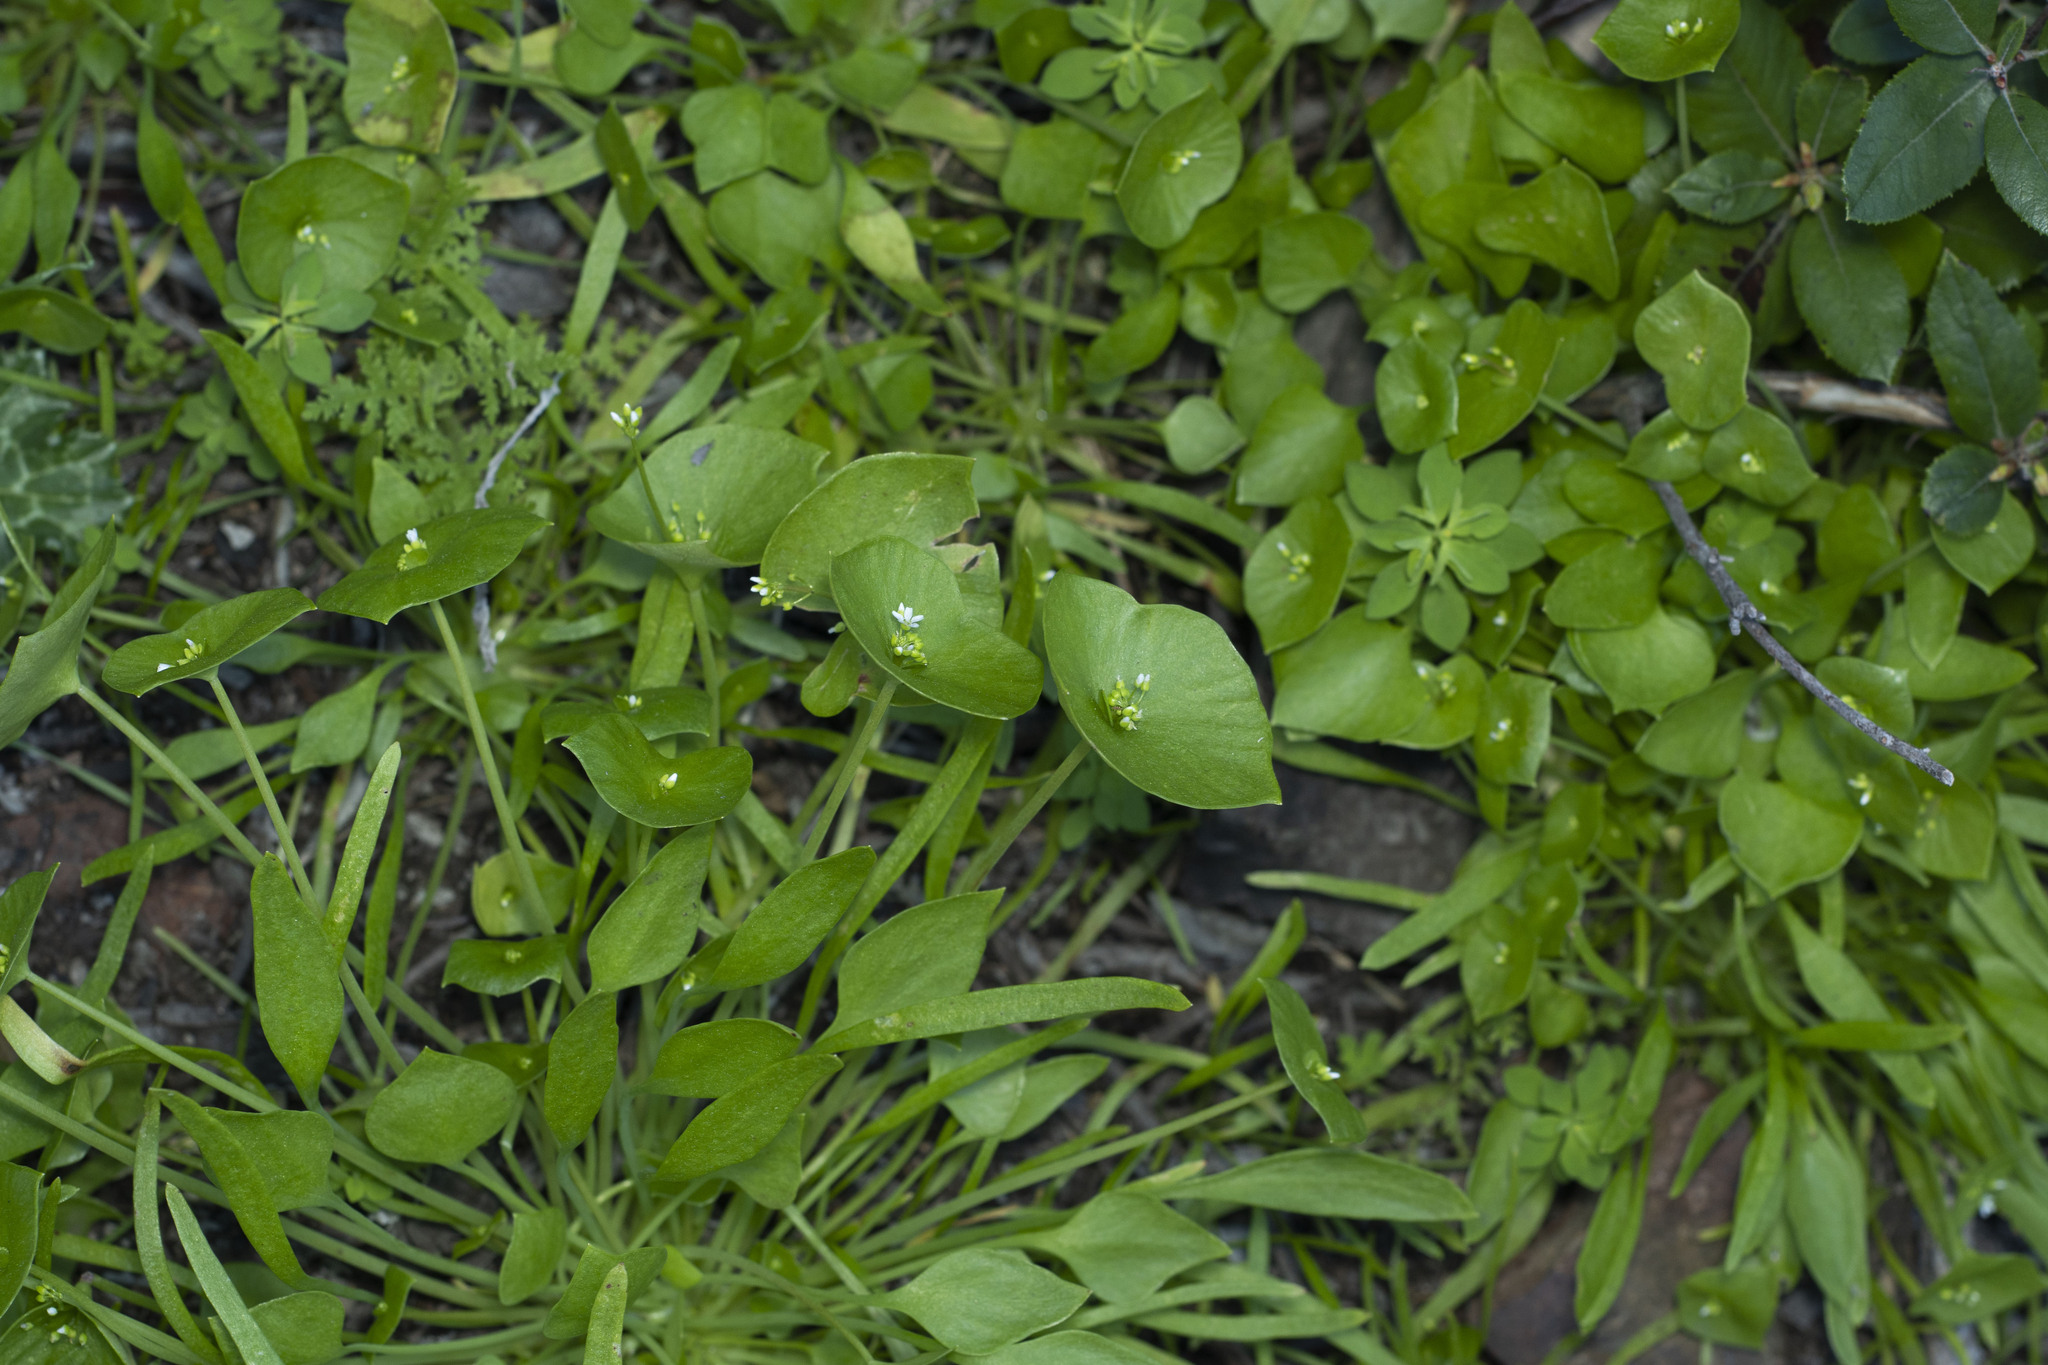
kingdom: Plantae
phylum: Tracheophyta
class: Magnoliopsida
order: Caryophyllales
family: Montiaceae
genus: Claytonia
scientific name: Claytonia perfoliata
